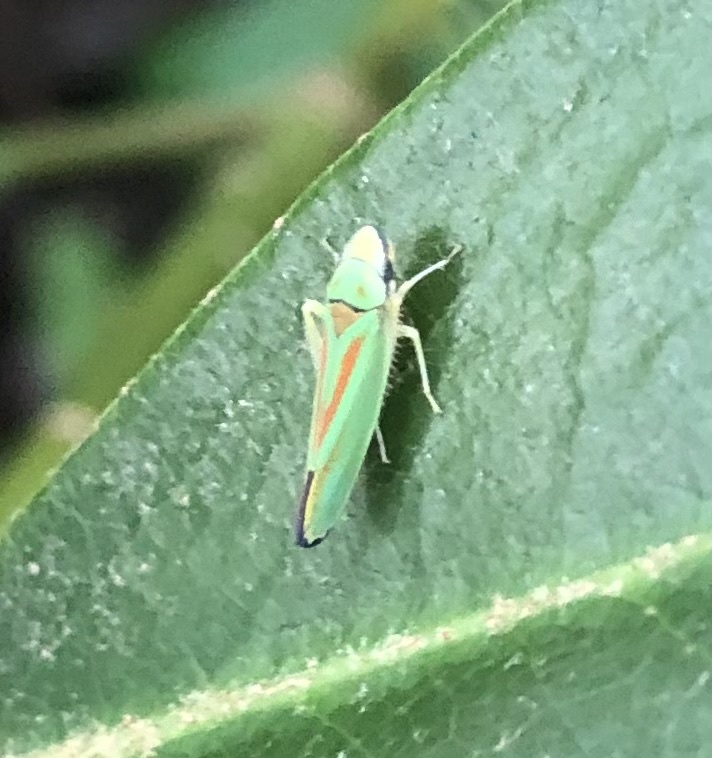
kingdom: Animalia
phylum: Arthropoda
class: Insecta
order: Hemiptera
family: Cicadellidae
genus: Graphocephala
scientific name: Graphocephala fennahi
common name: Rhododendron leafhopper
